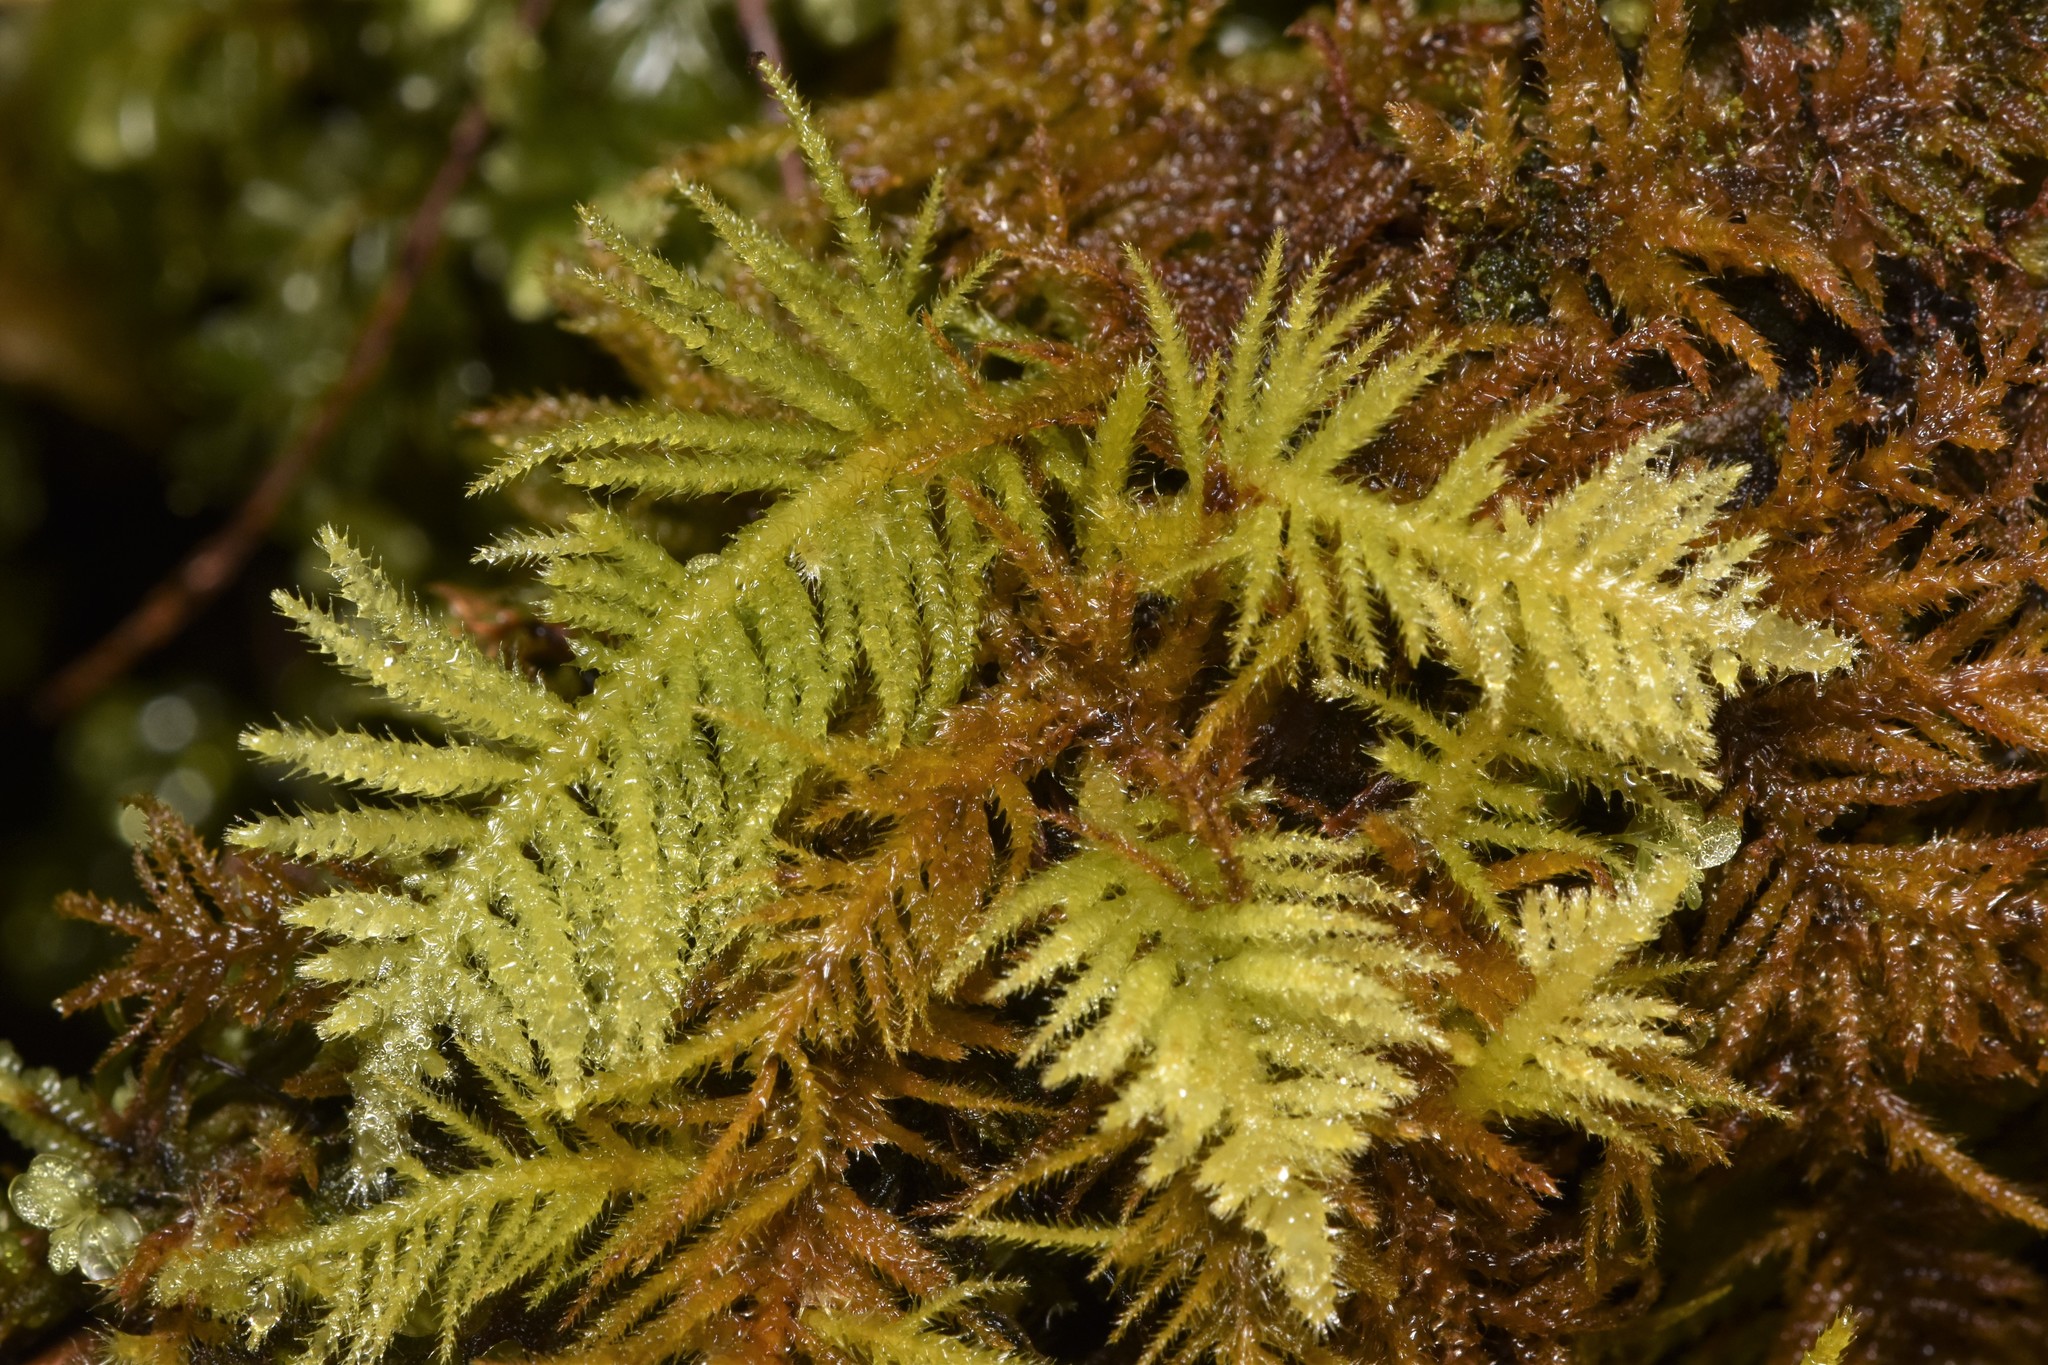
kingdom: Plantae
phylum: Bryophyta
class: Bryopsida
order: Hypnales
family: Brachytheciaceae
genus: Kindbergia
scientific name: Kindbergia oregana
